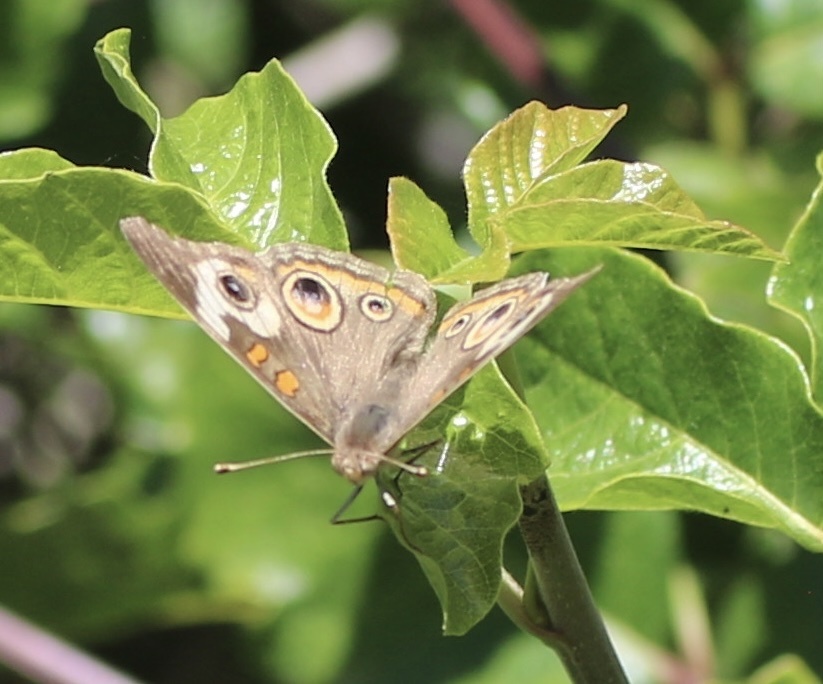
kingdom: Animalia
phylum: Arthropoda
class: Insecta
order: Lepidoptera
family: Nymphalidae
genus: Junonia
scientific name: Junonia grisea
